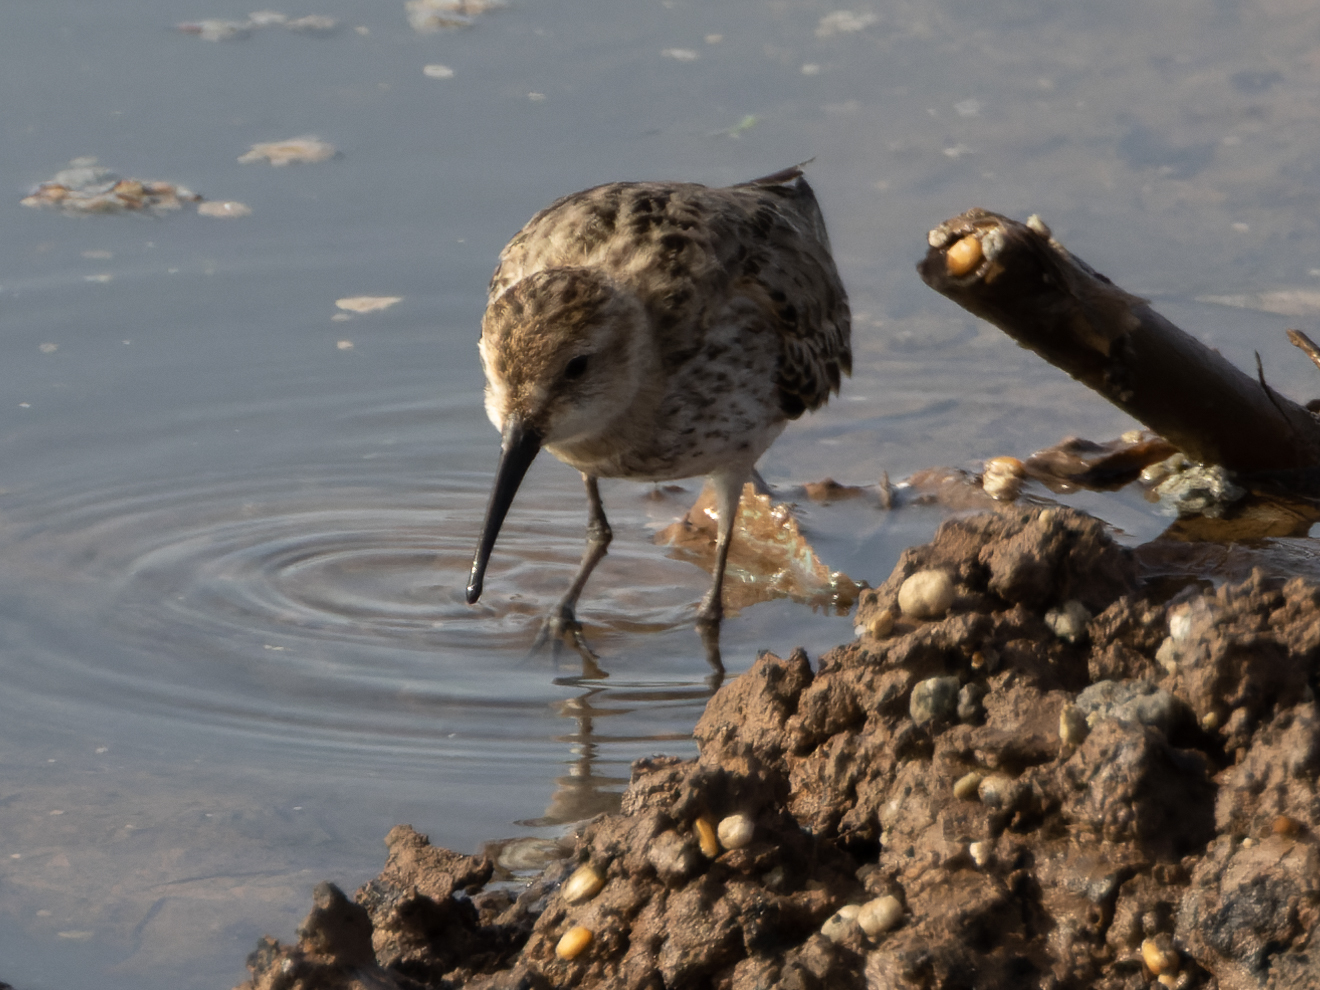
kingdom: Animalia
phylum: Chordata
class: Aves
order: Charadriiformes
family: Scolopacidae
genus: Calidris
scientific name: Calidris ferruginea
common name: Curlew sandpiper
